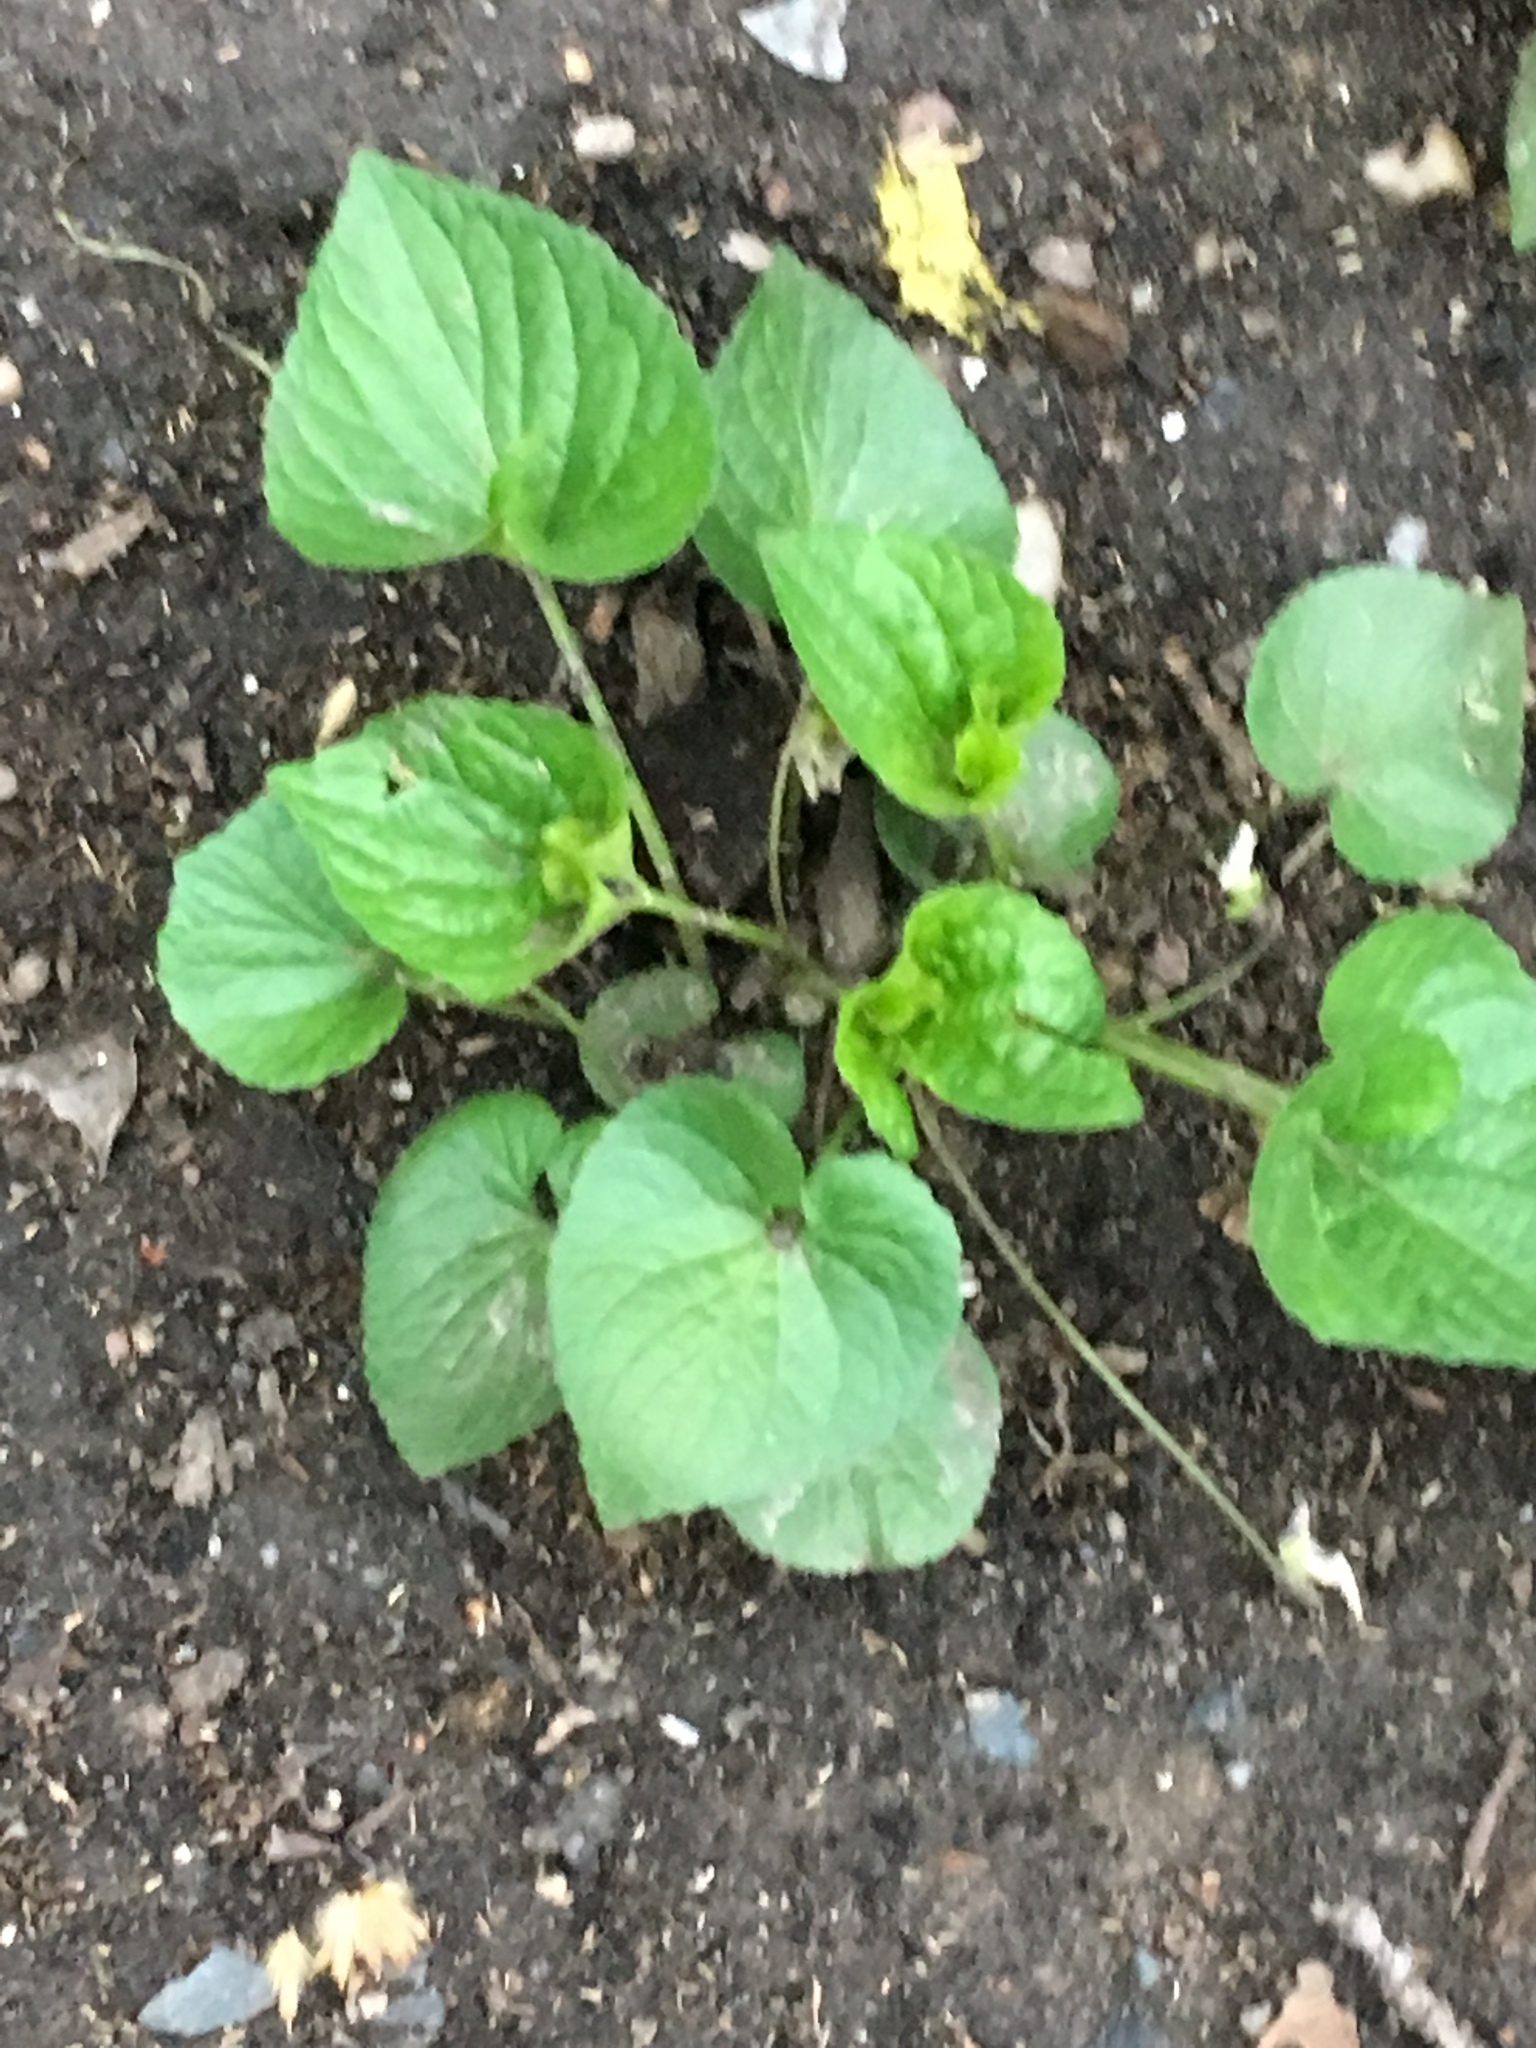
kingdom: Plantae
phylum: Tracheophyta
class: Magnoliopsida
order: Malpighiales
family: Violaceae
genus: Viola
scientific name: Viola sororia
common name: Dooryard violet
